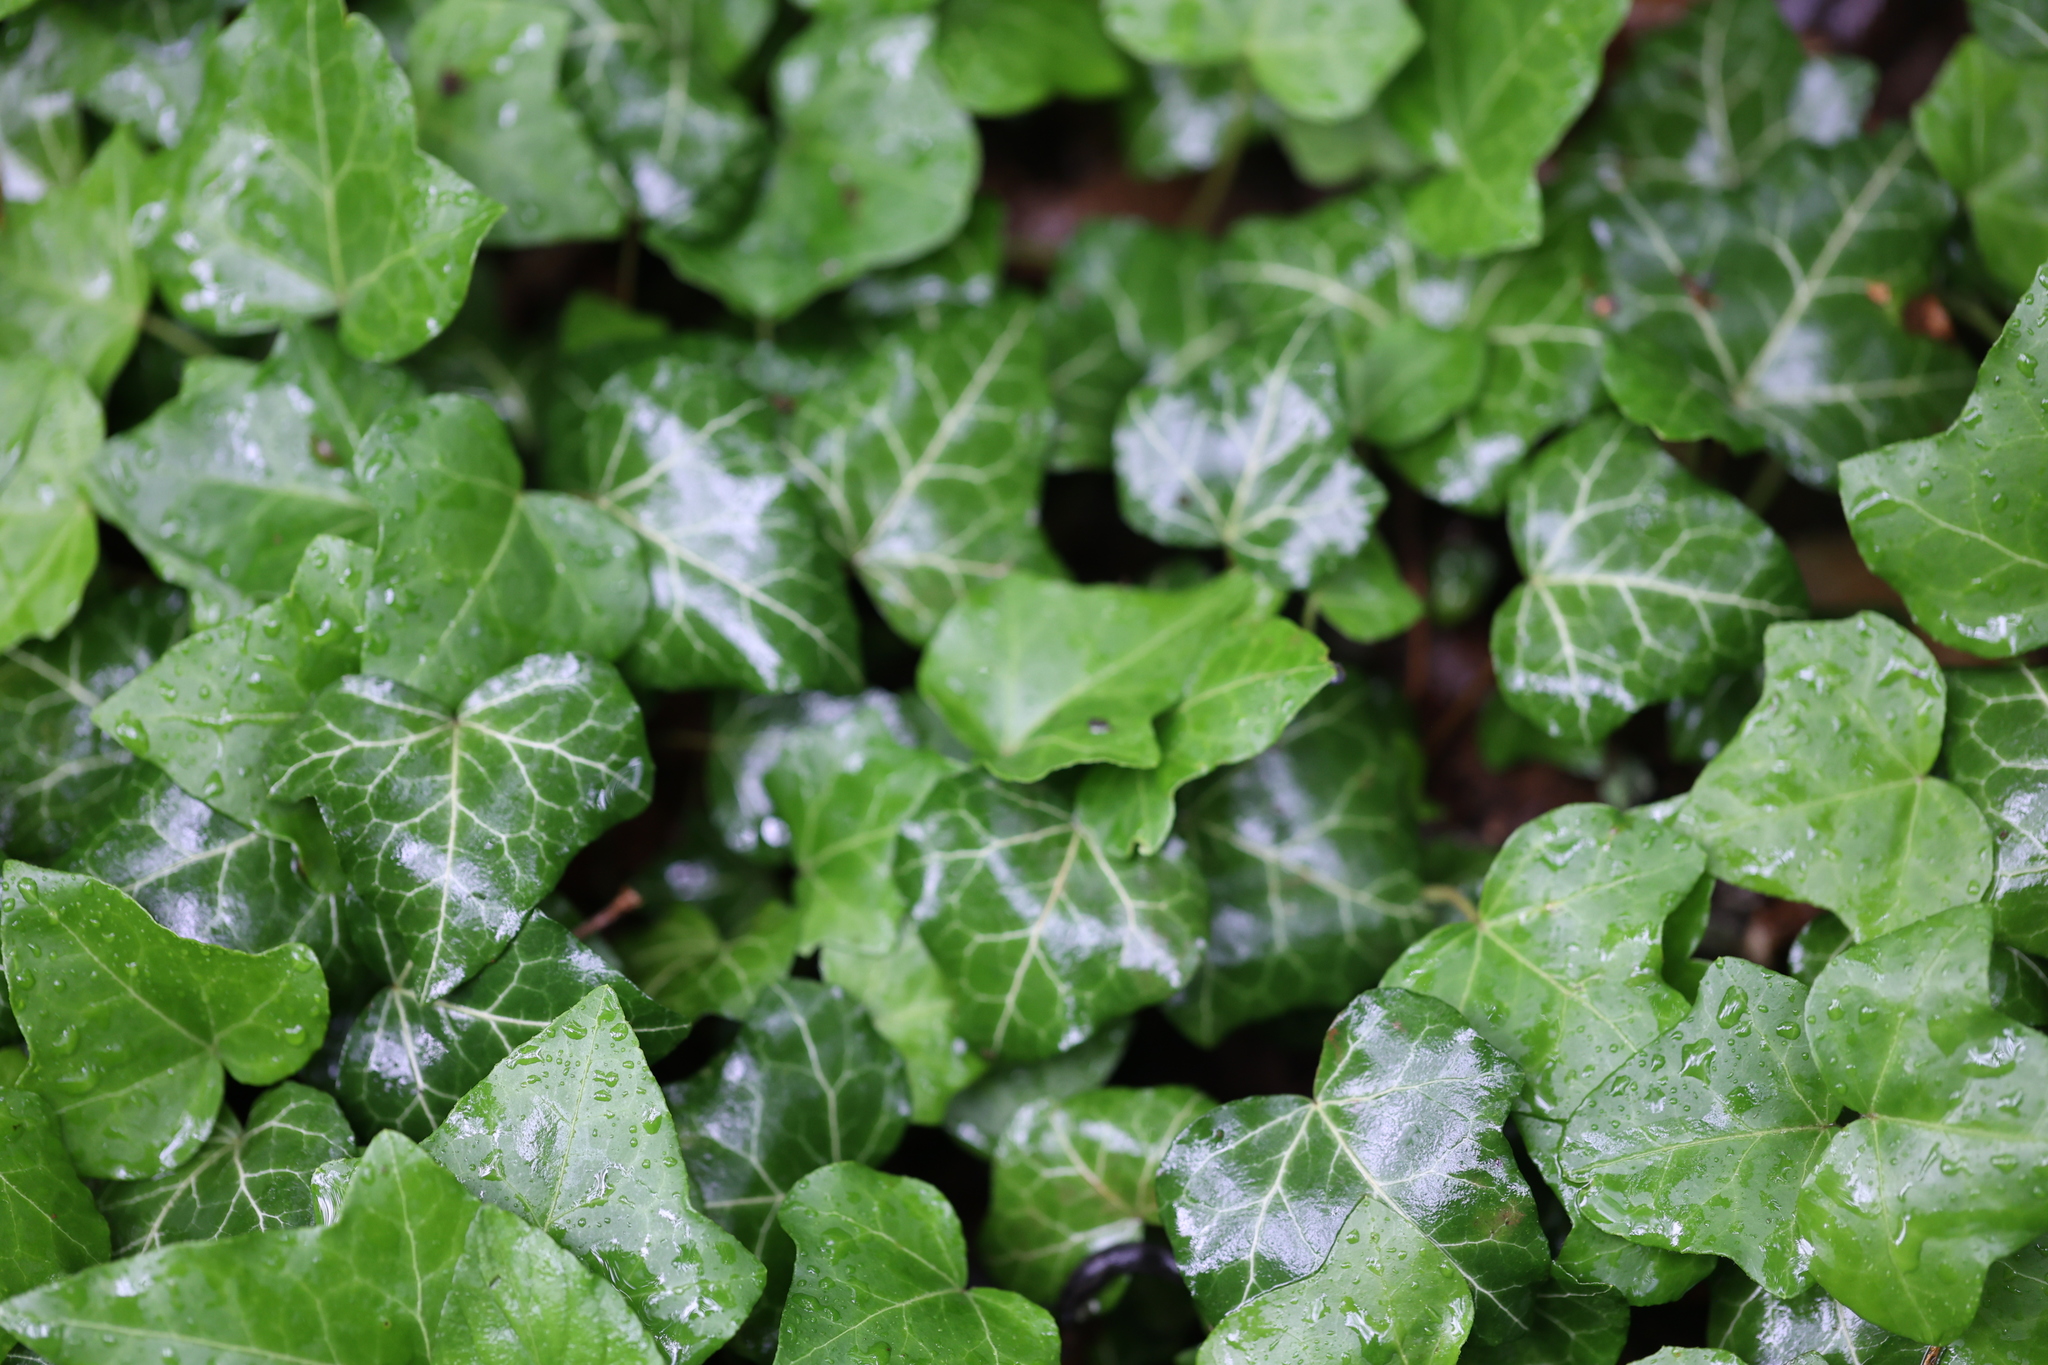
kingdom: Plantae
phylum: Tracheophyta
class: Magnoliopsida
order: Apiales
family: Araliaceae
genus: Hedera
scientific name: Hedera helix
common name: Ivy
